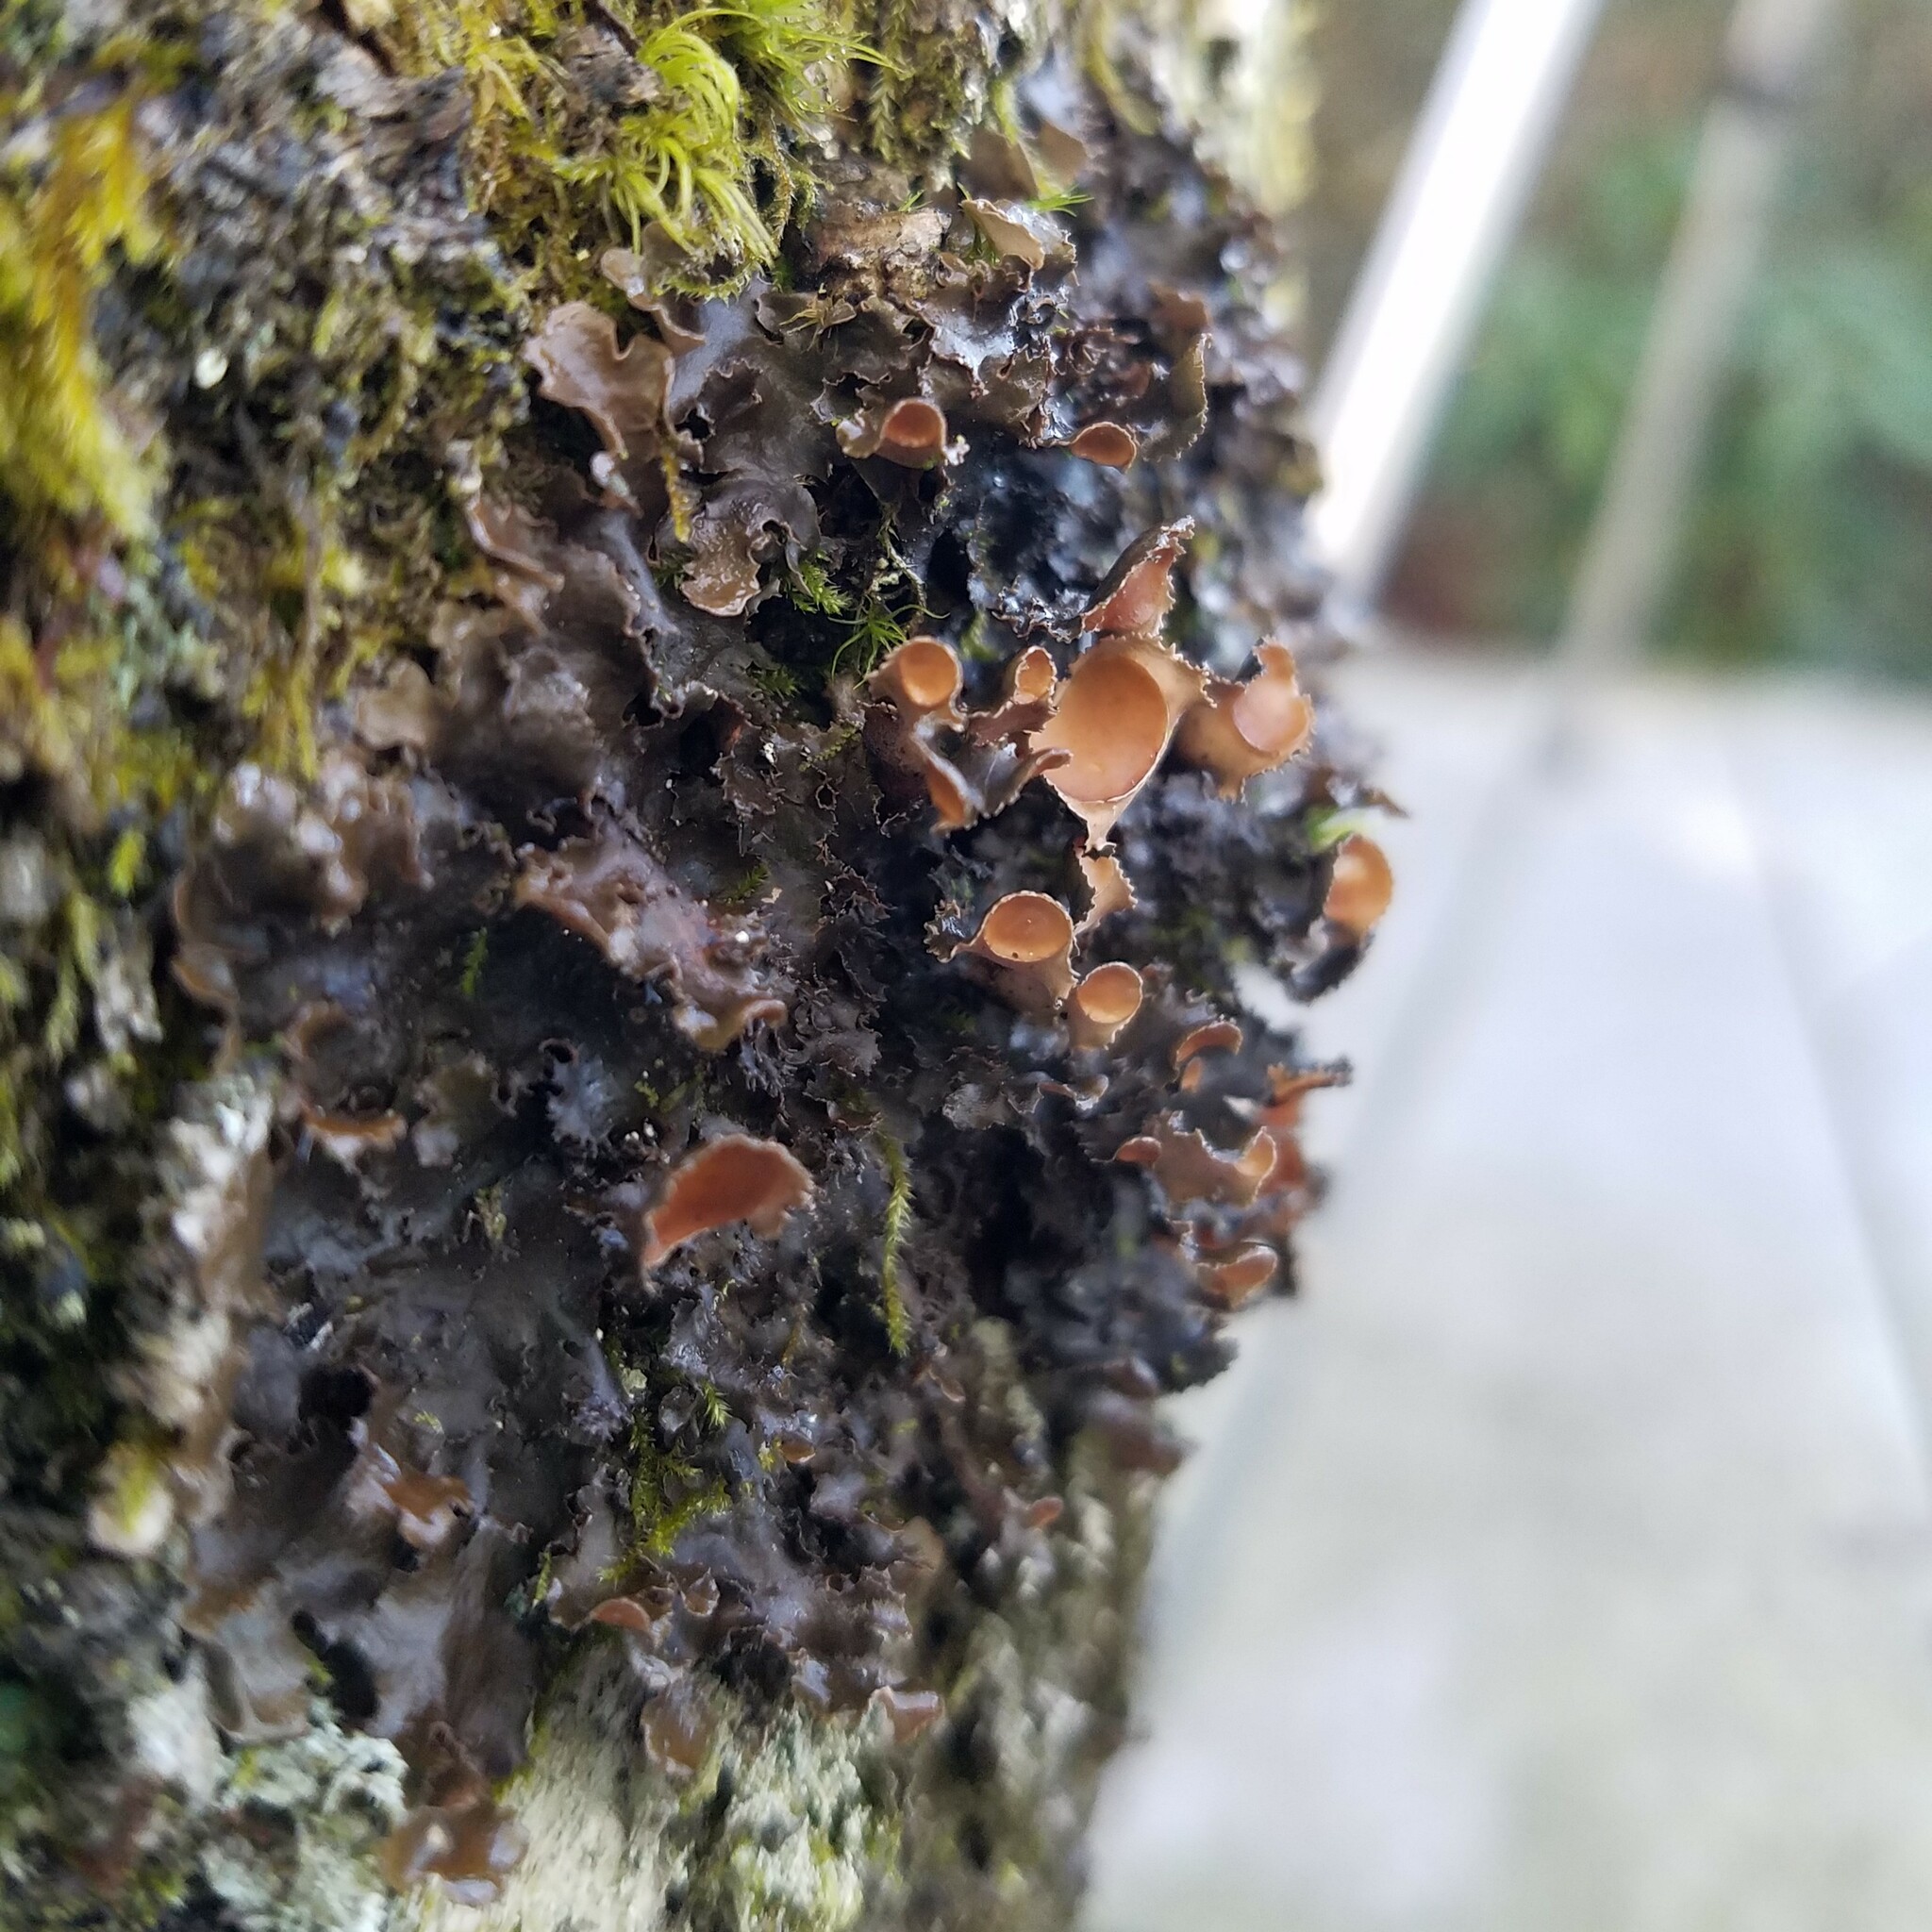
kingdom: Fungi
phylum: Ascomycota
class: Lecanoromycetes
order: Peltigerales
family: Nephromataceae
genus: Nephroma
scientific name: Nephroma helveticum
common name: Fringed kidney lichen
